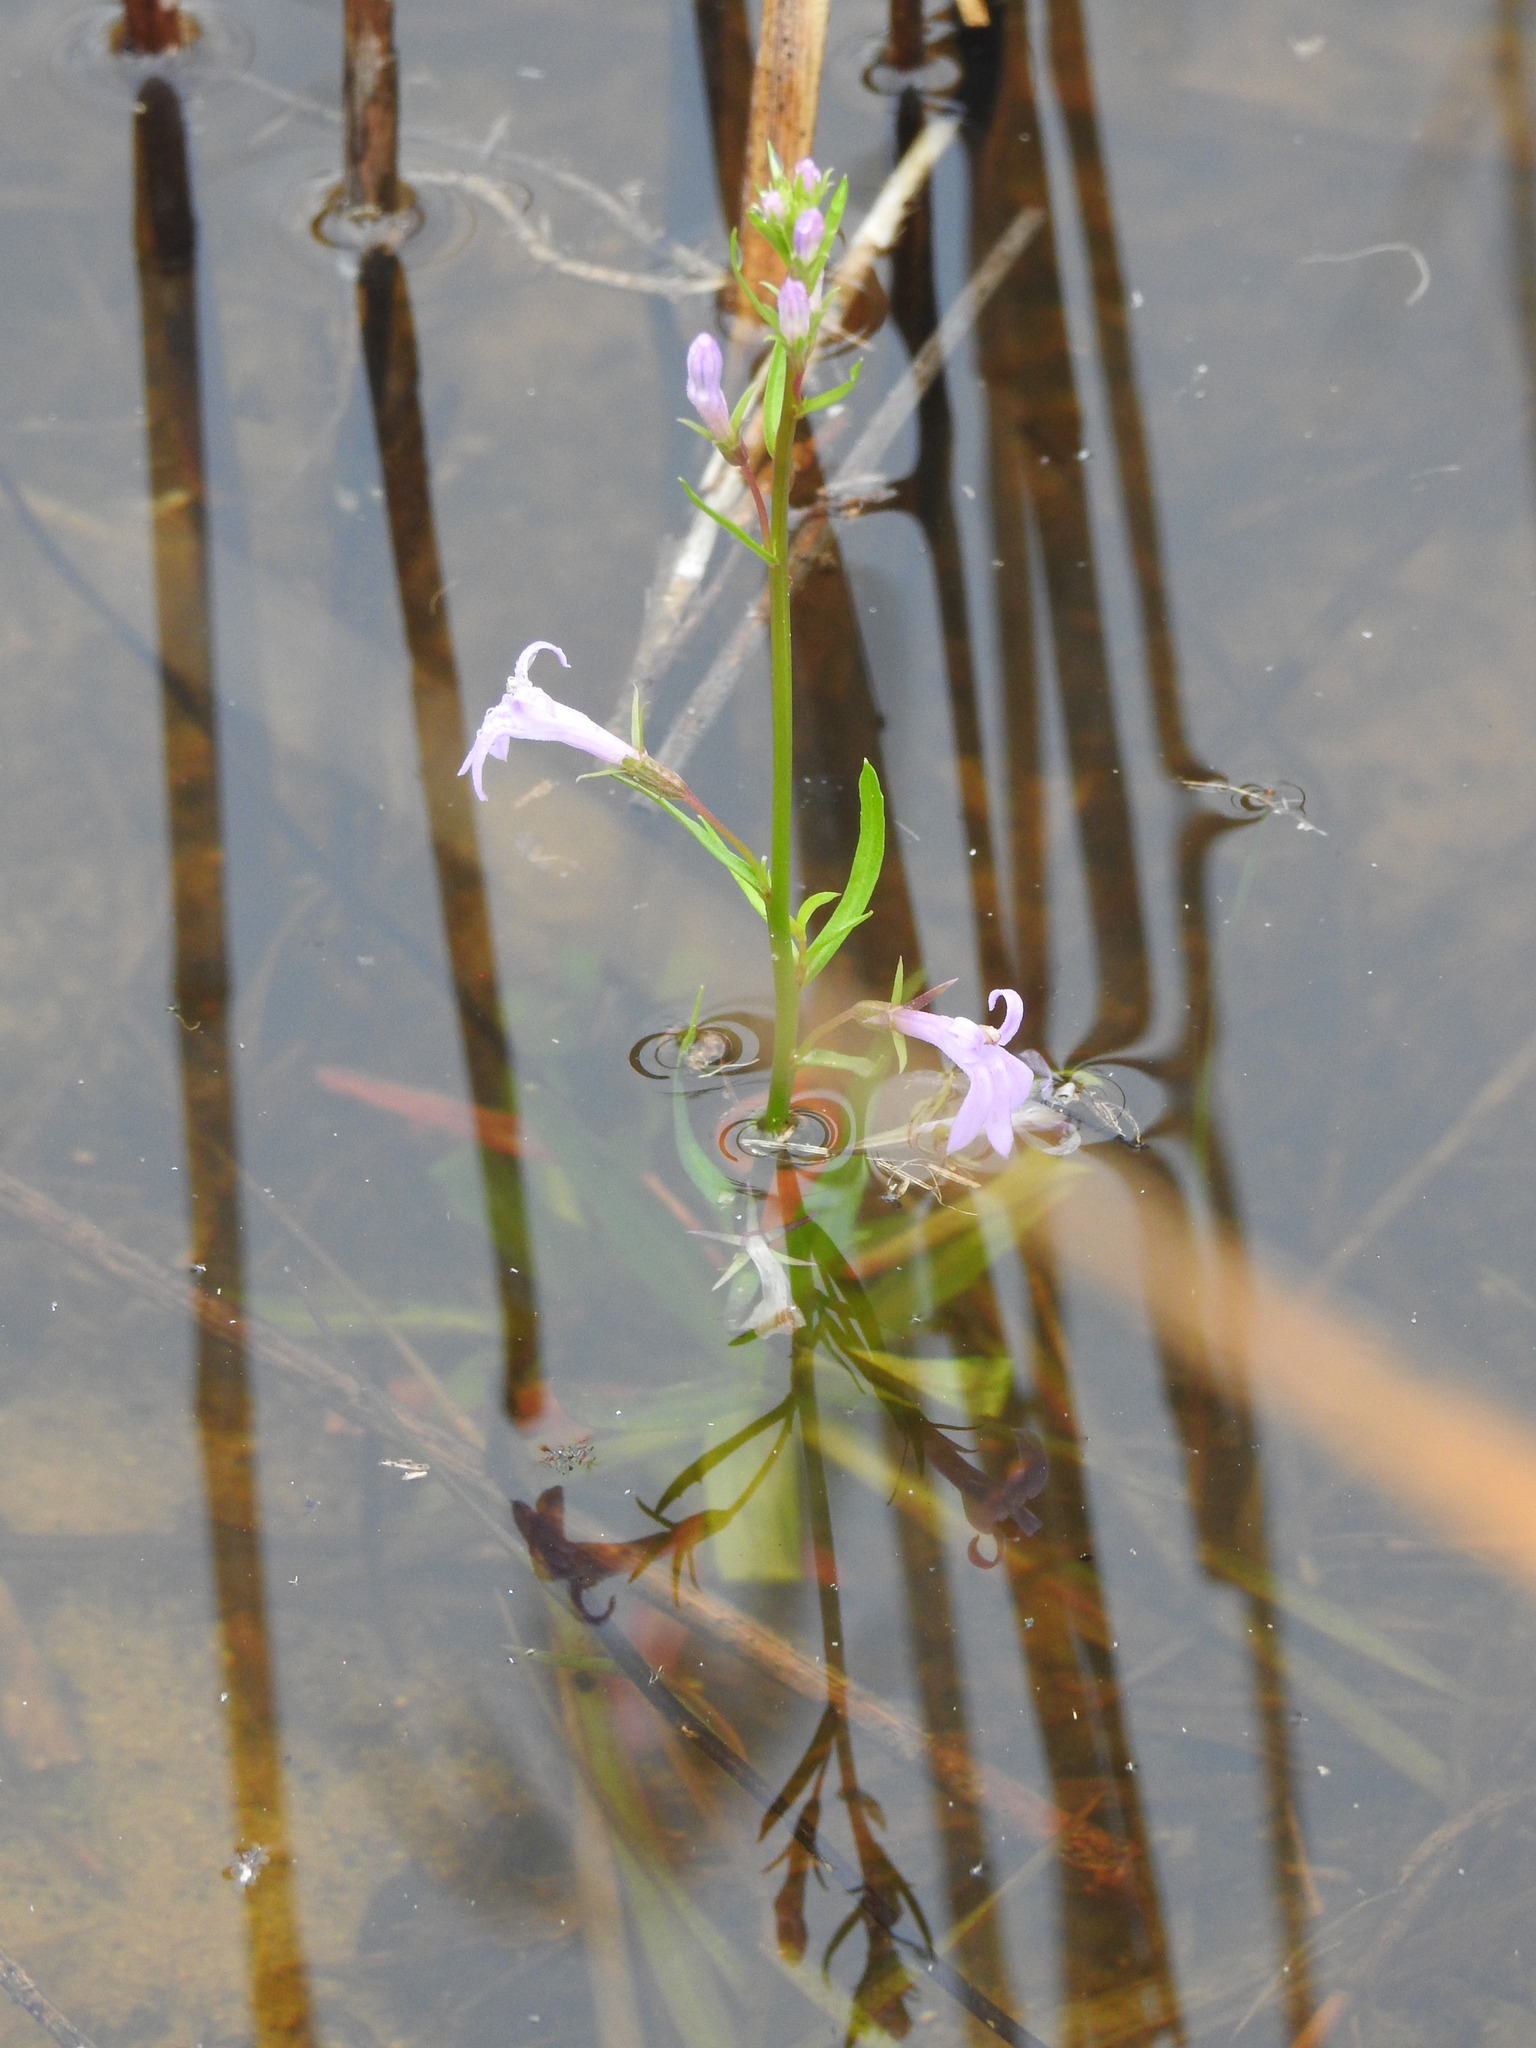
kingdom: Plantae
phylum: Tracheophyta
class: Magnoliopsida
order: Asterales
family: Campanulaceae
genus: Lobelia
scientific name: Lobelia urens
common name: Heath lobelia
